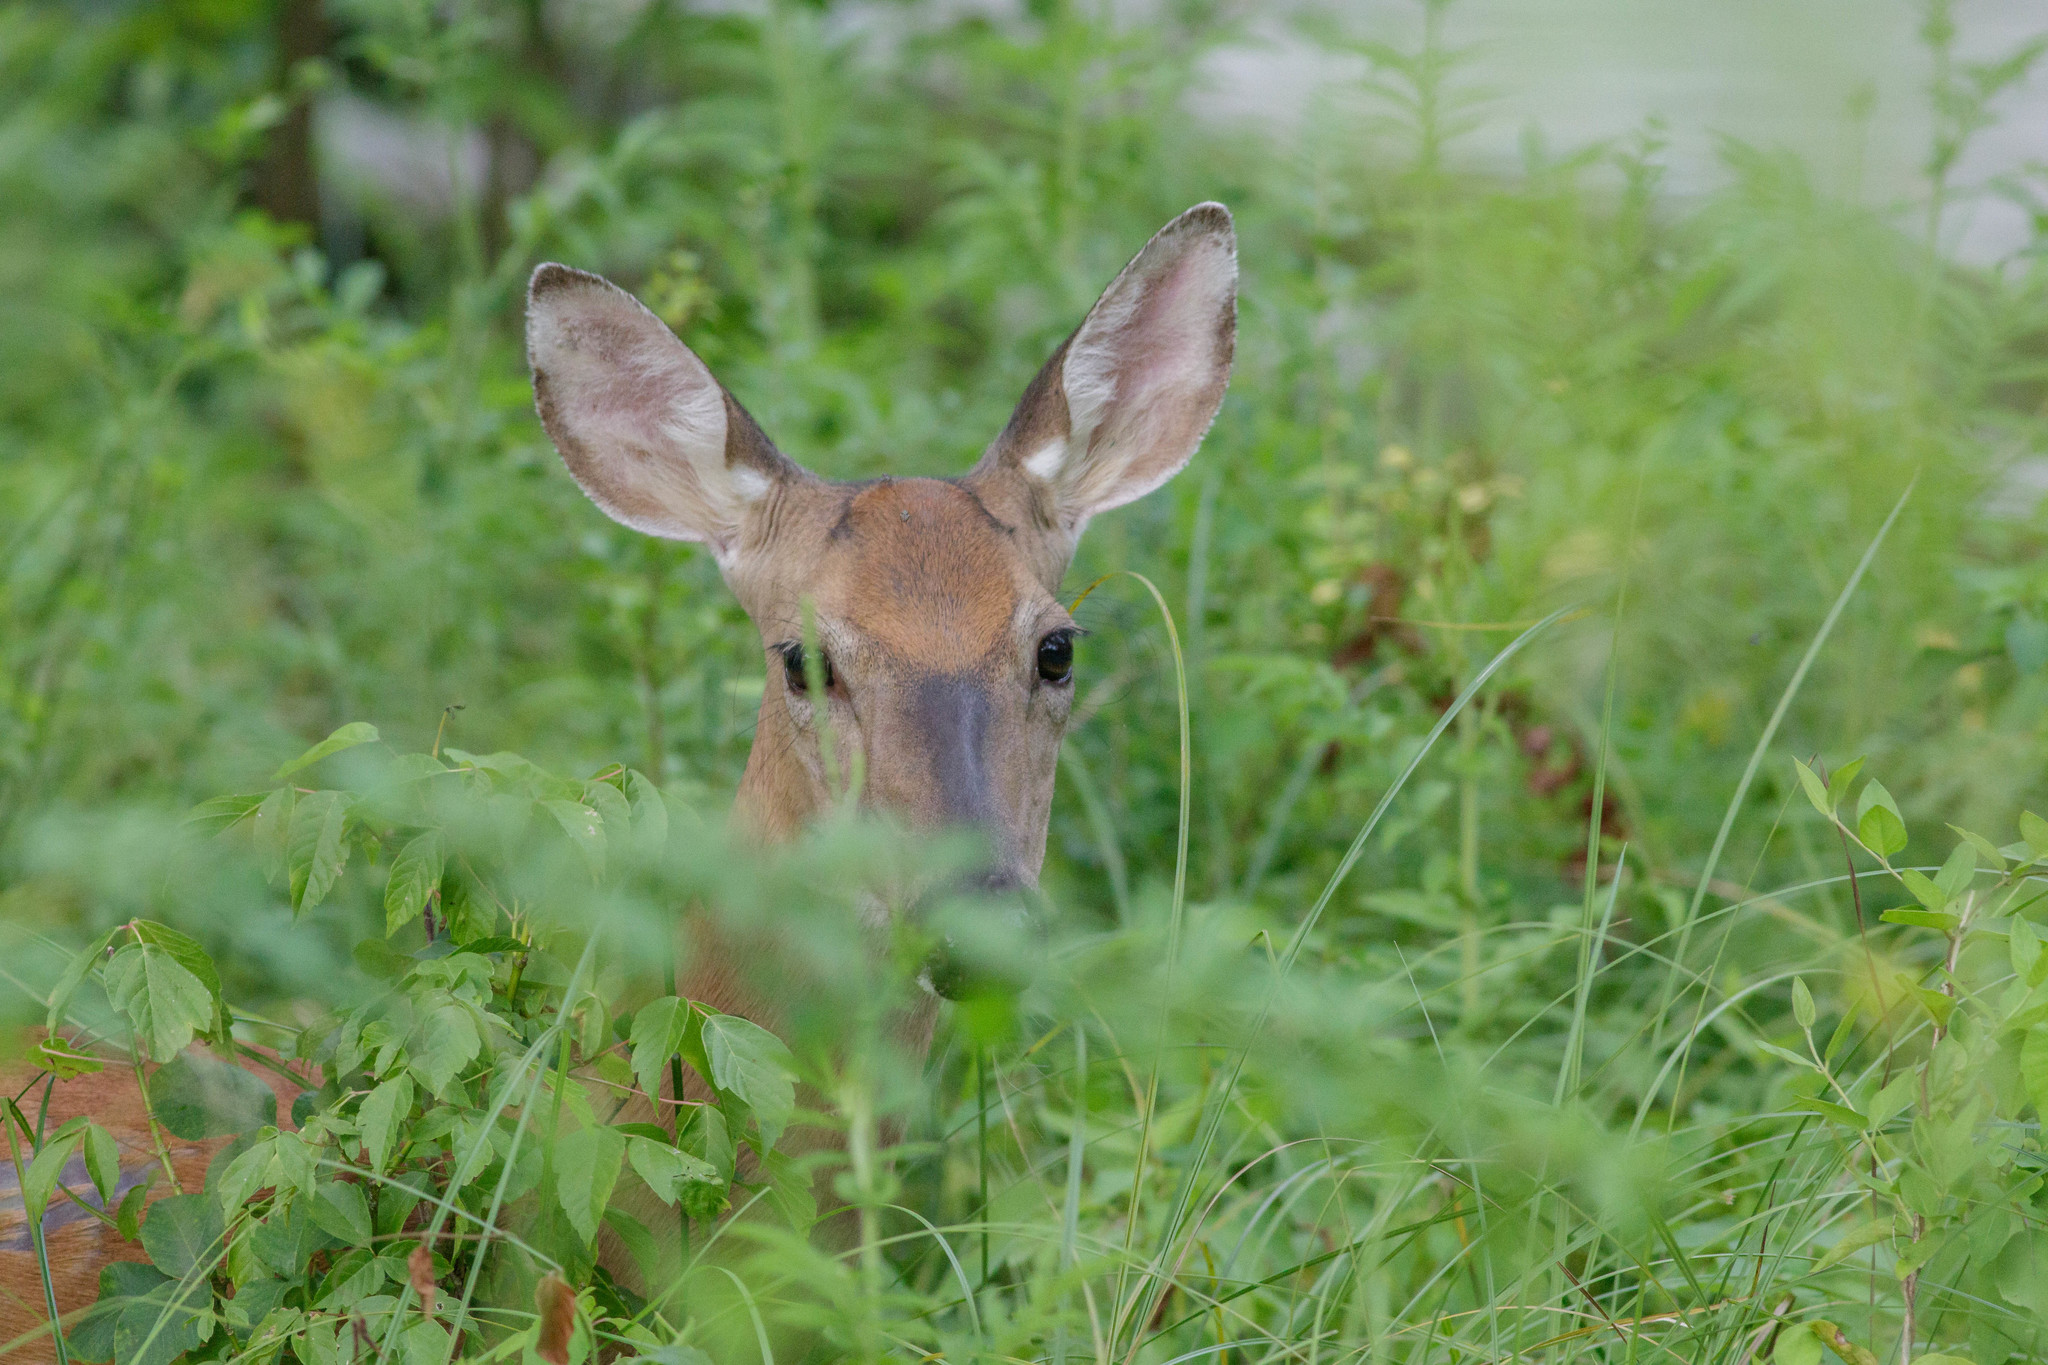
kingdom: Animalia
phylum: Chordata
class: Mammalia
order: Artiodactyla
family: Cervidae
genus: Odocoileus
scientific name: Odocoileus virginianus
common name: White-tailed deer
